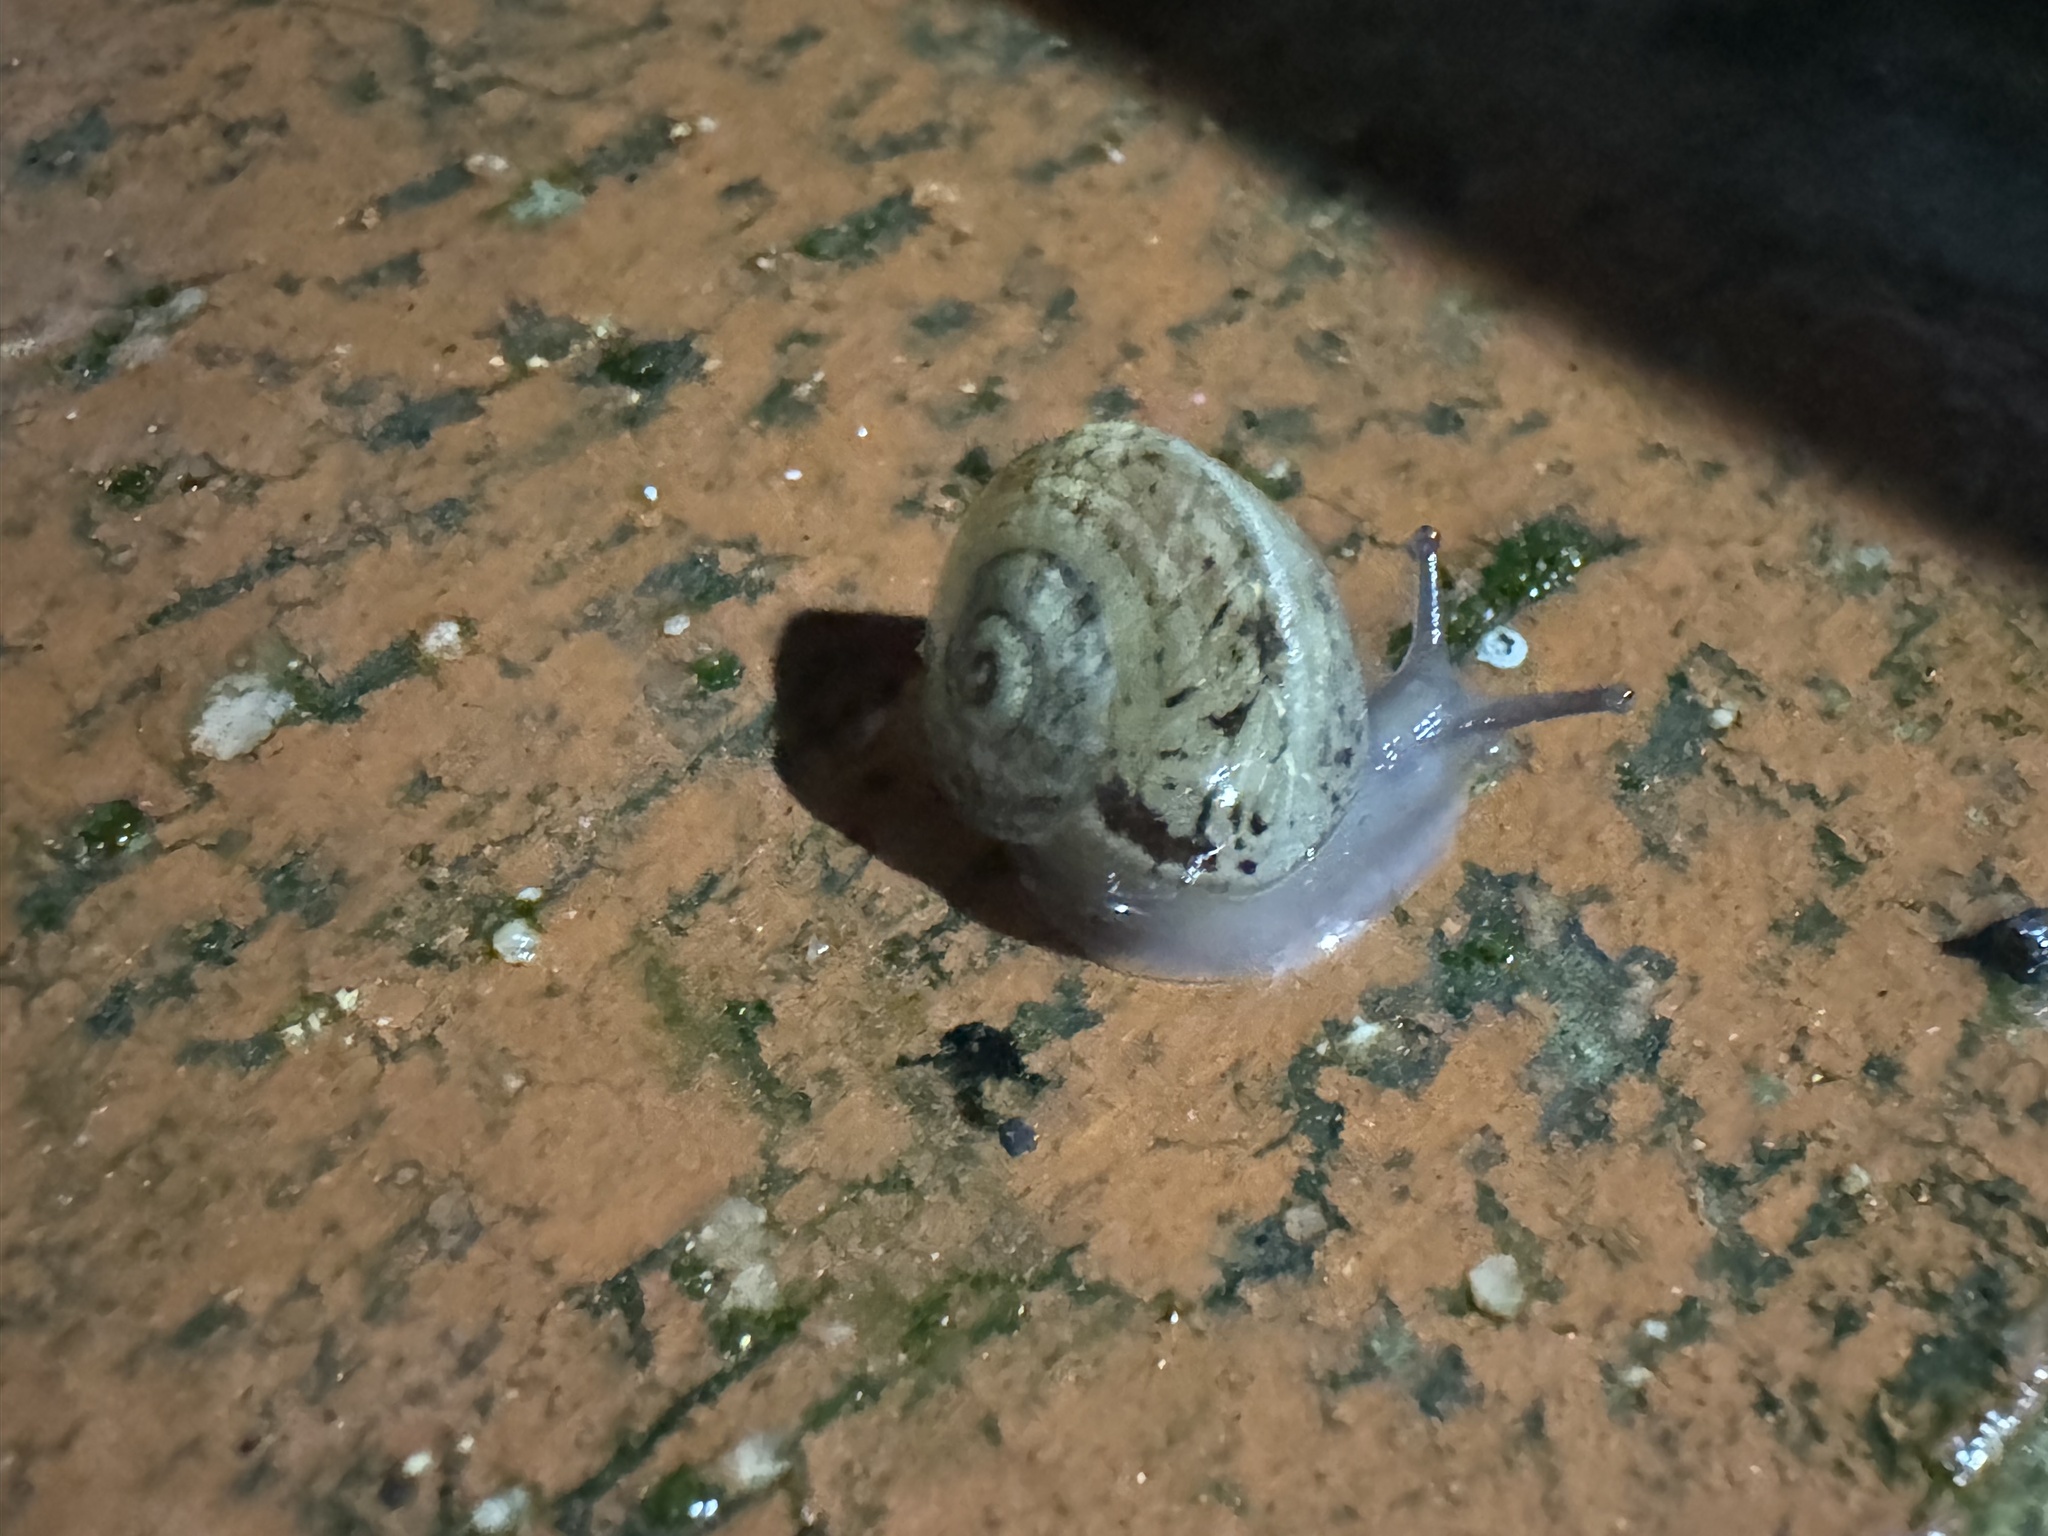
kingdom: Animalia
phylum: Mollusca
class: Gastropoda
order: Stylommatophora
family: Helicidae
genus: Cornu
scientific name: Cornu aspersum
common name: Brown garden snail
